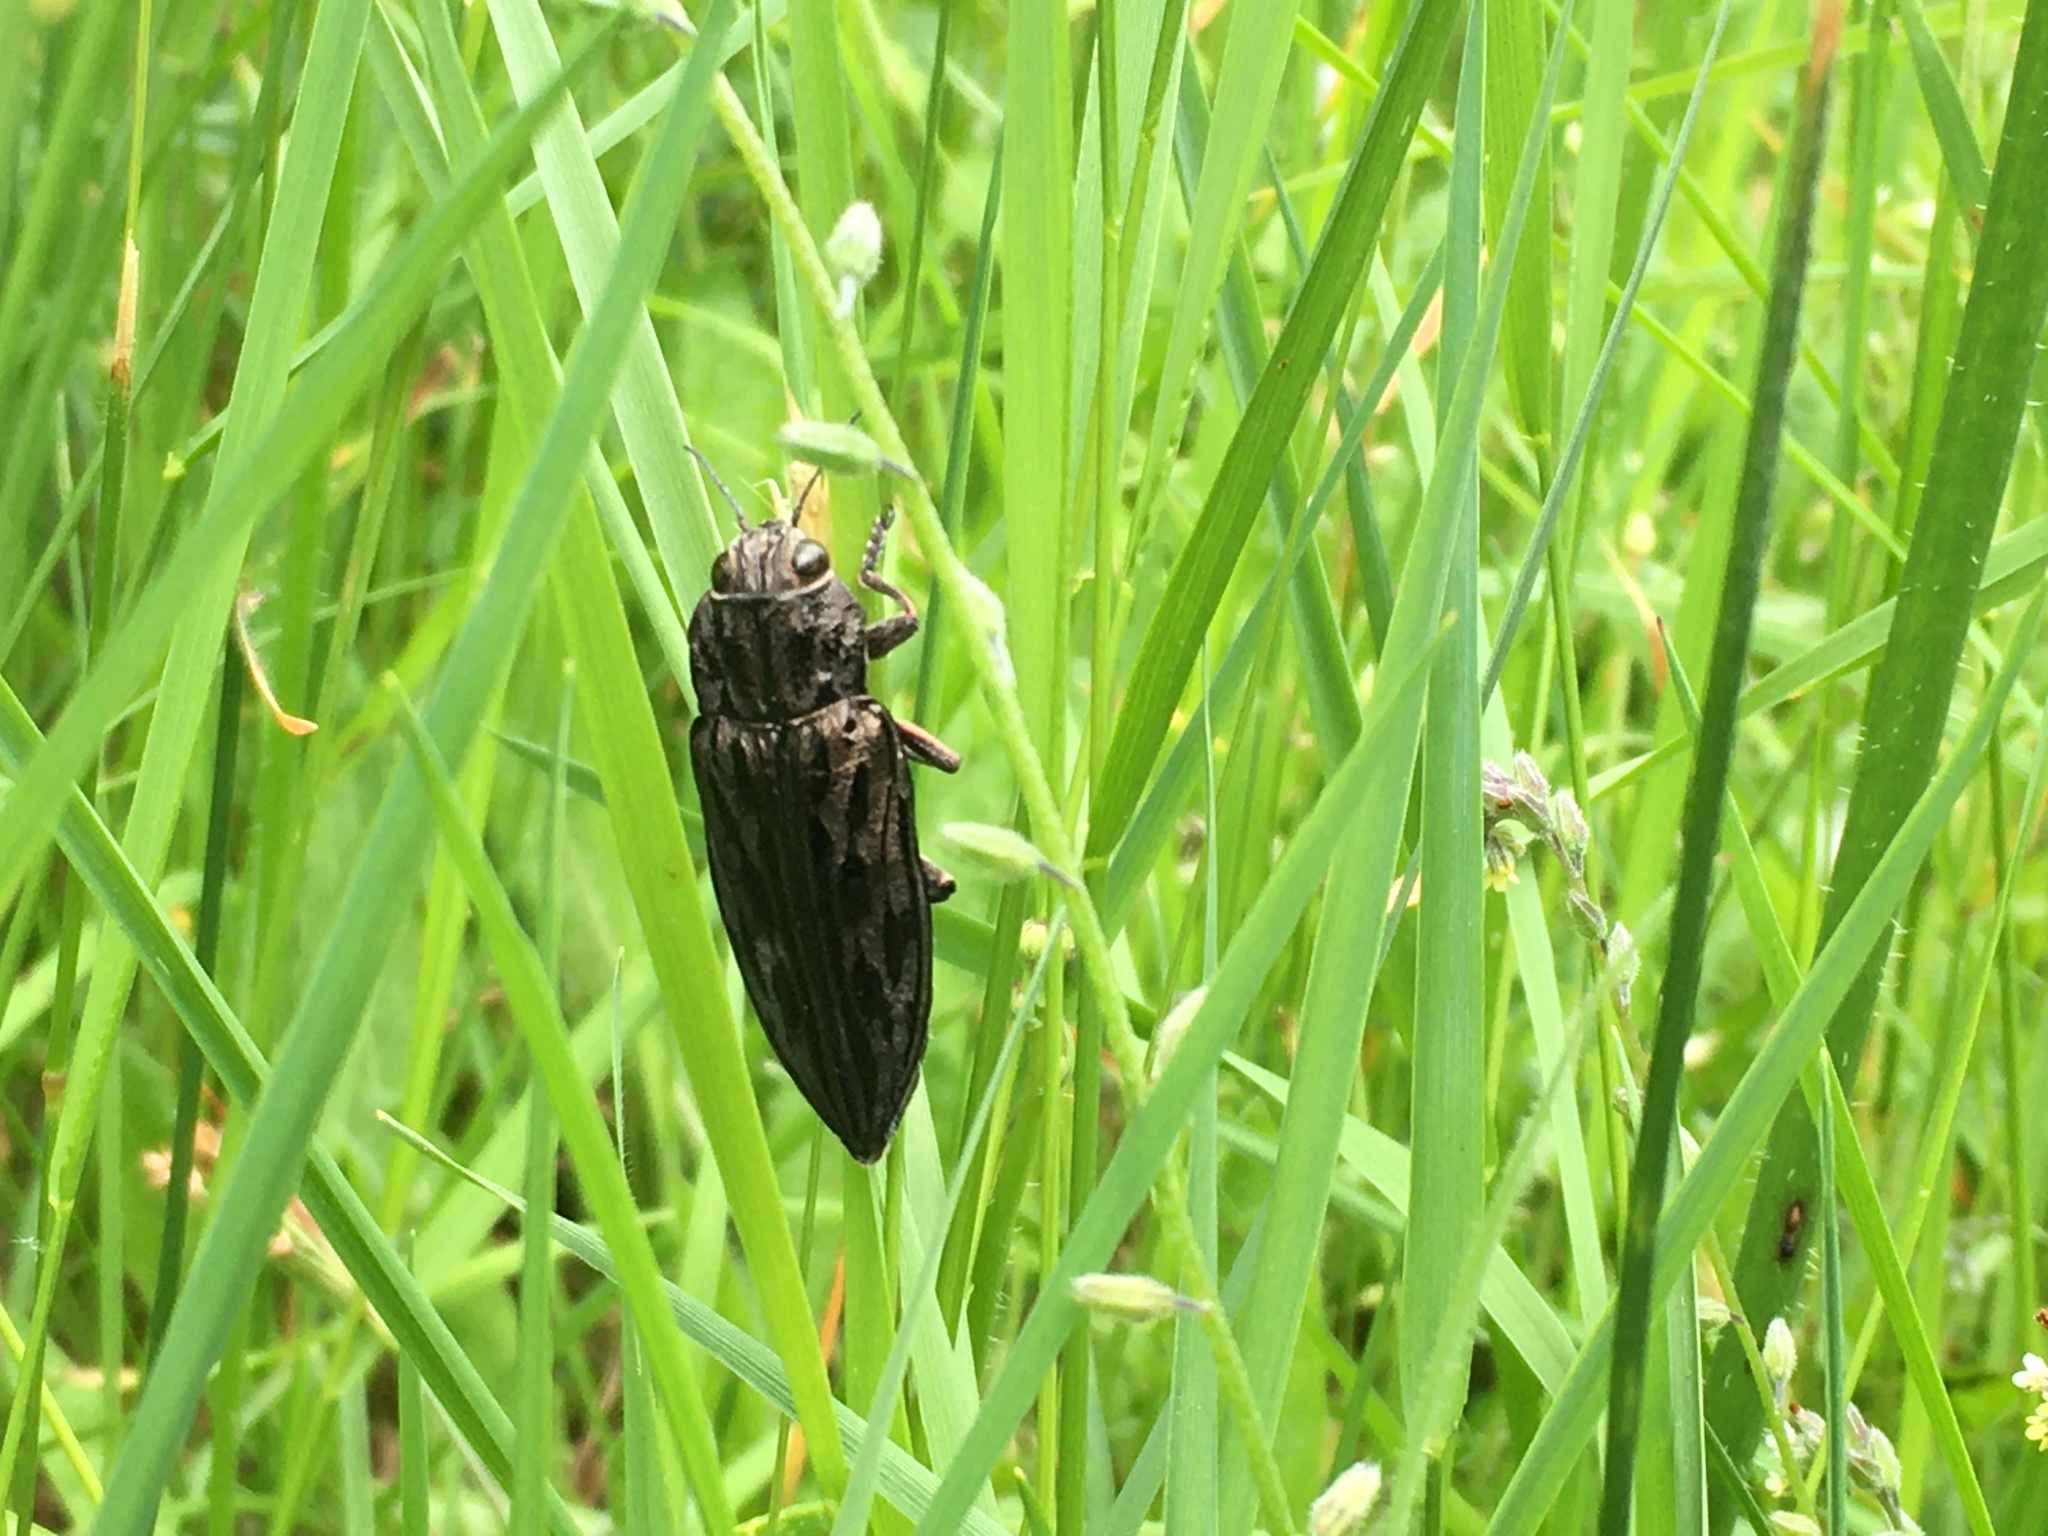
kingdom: Animalia
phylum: Arthropoda
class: Insecta
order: Coleoptera
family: Buprestidae
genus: Chalcophora
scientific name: Chalcophora angulicollis
